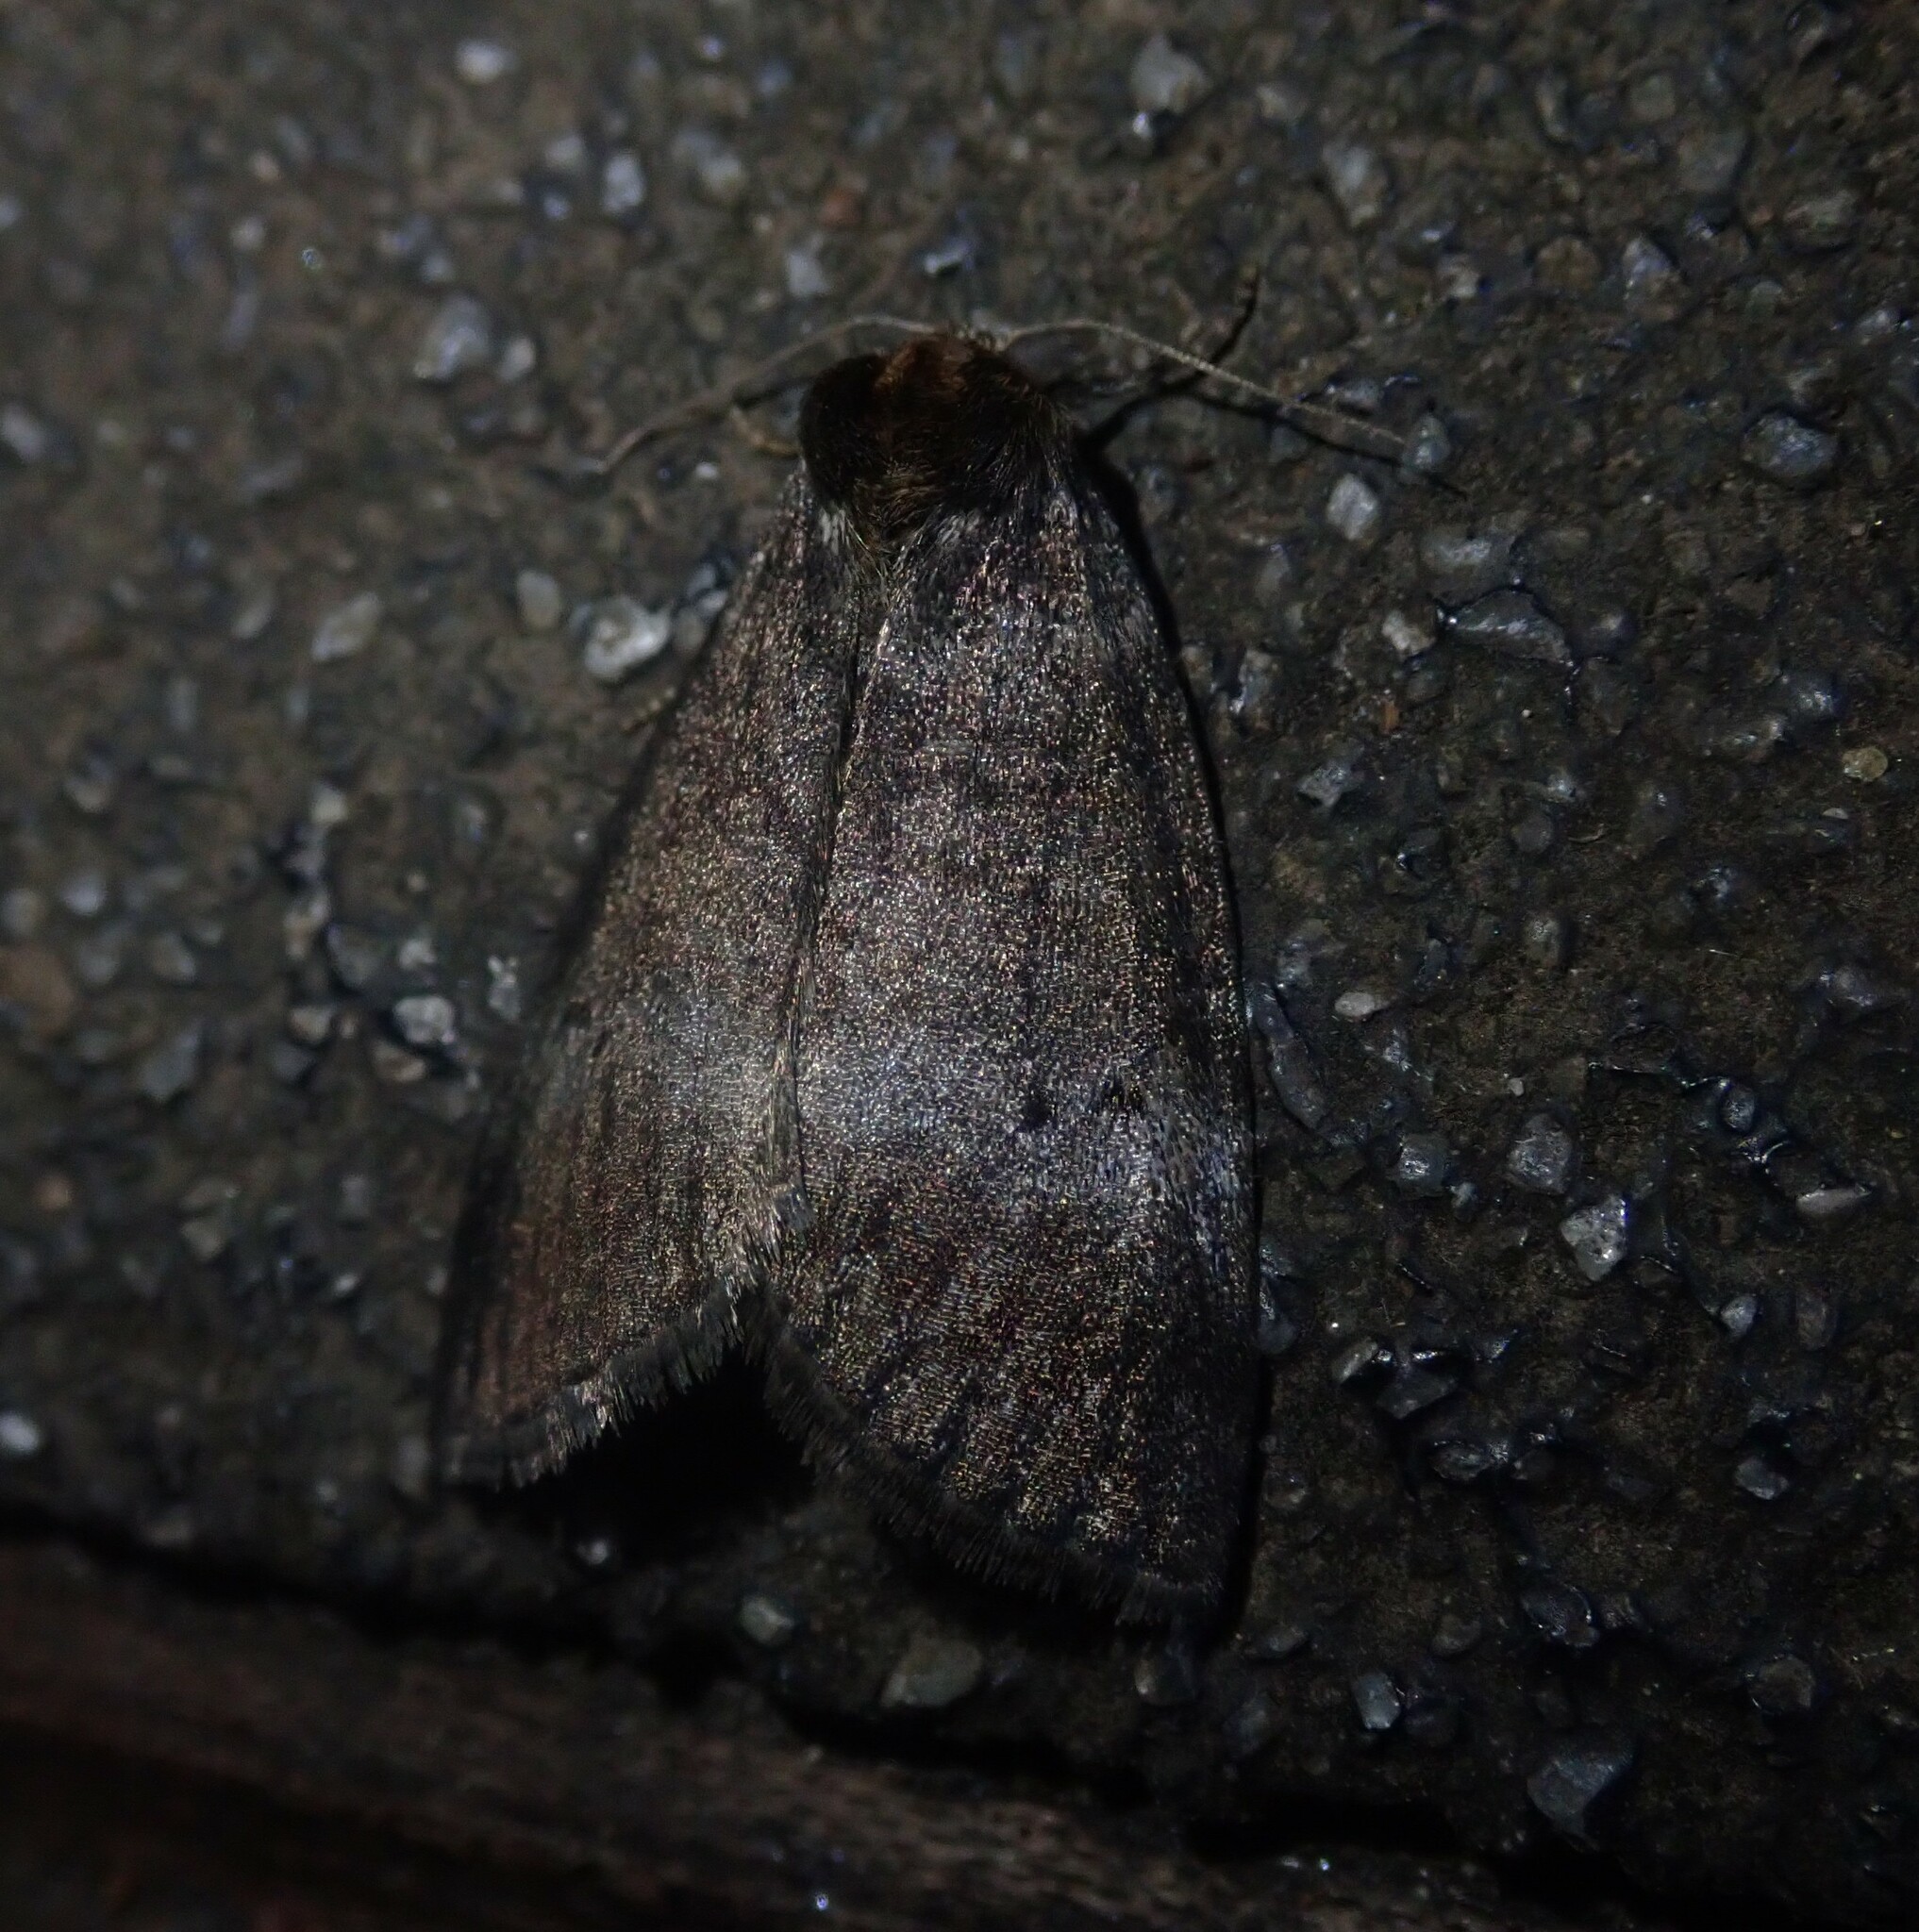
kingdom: Animalia
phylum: Arthropoda
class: Insecta
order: Lepidoptera
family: Drepanidae
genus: Ochropacha
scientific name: Ochropacha duplaris
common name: Common lutestring
